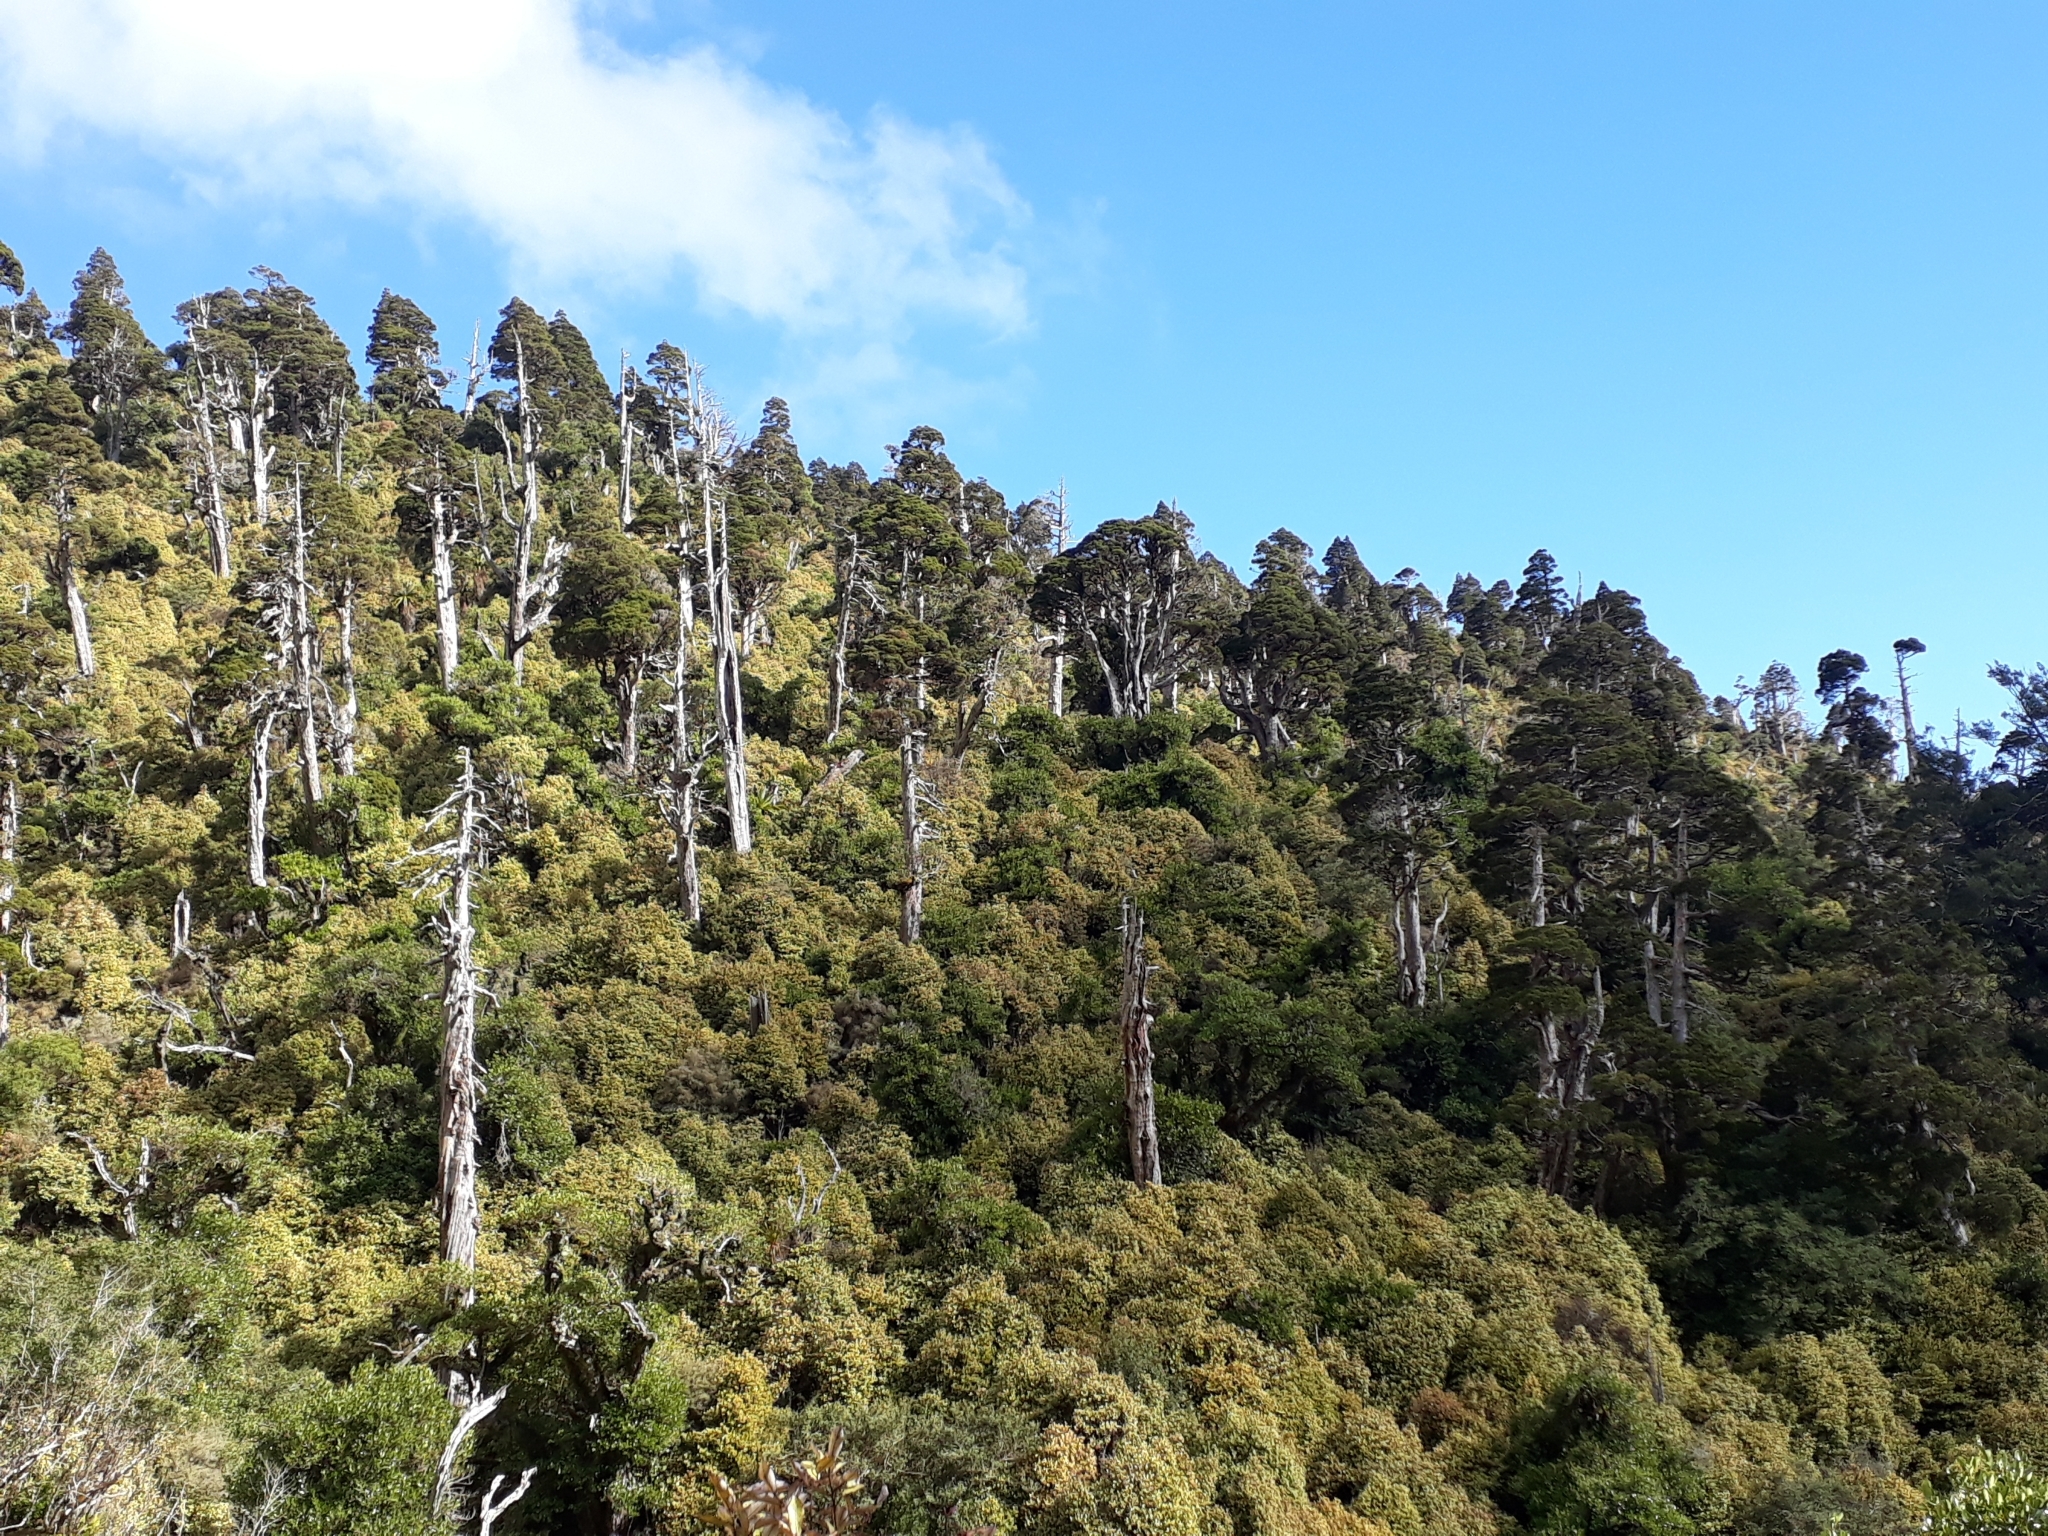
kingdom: Plantae
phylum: Tracheophyta
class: Pinopsida
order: Pinales
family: Cupressaceae
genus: Libocedrus
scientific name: Libocedrus bidwillii
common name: Cedar
